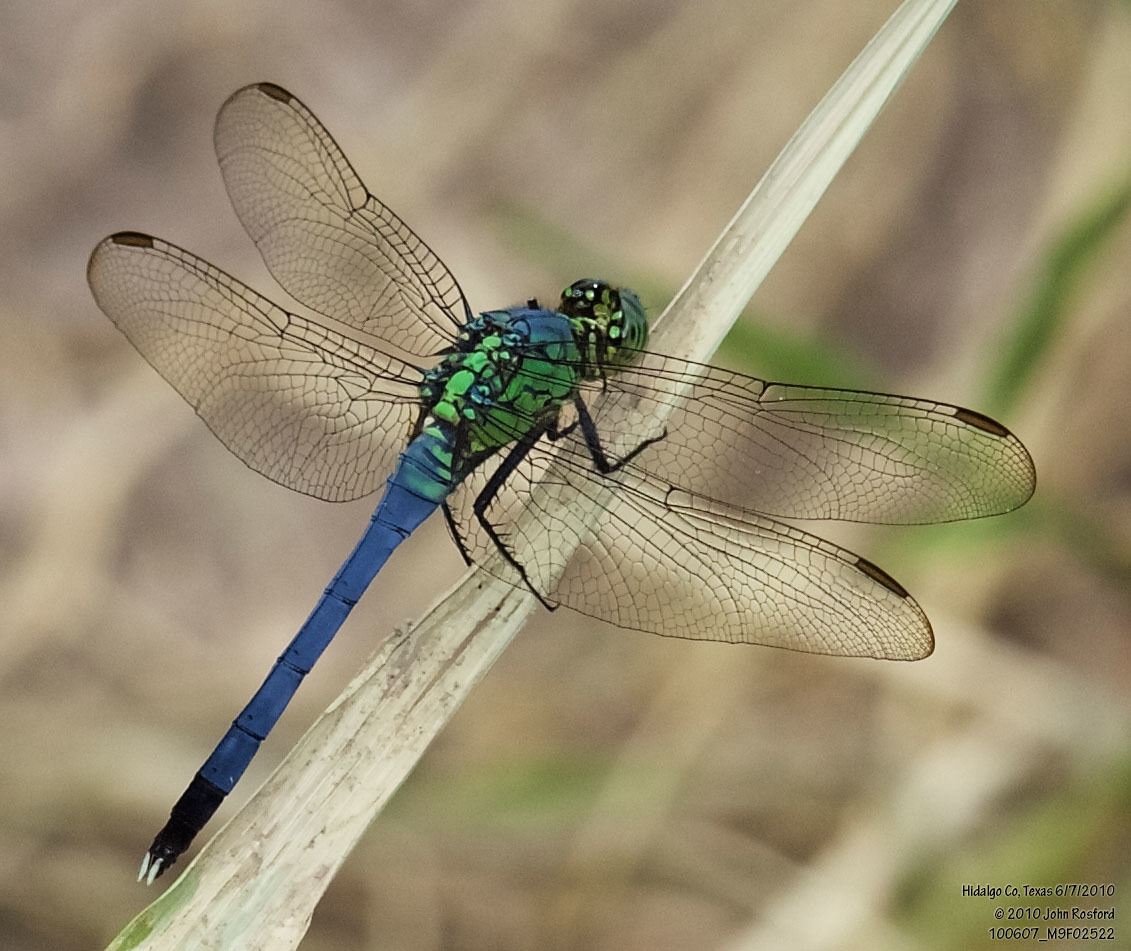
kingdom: Animalia
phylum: Arthropoda
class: Insecta
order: Odonata
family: Libellulidae
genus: Erythemis
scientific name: Erythemis simplicicollis
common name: Eastern pondhawk
